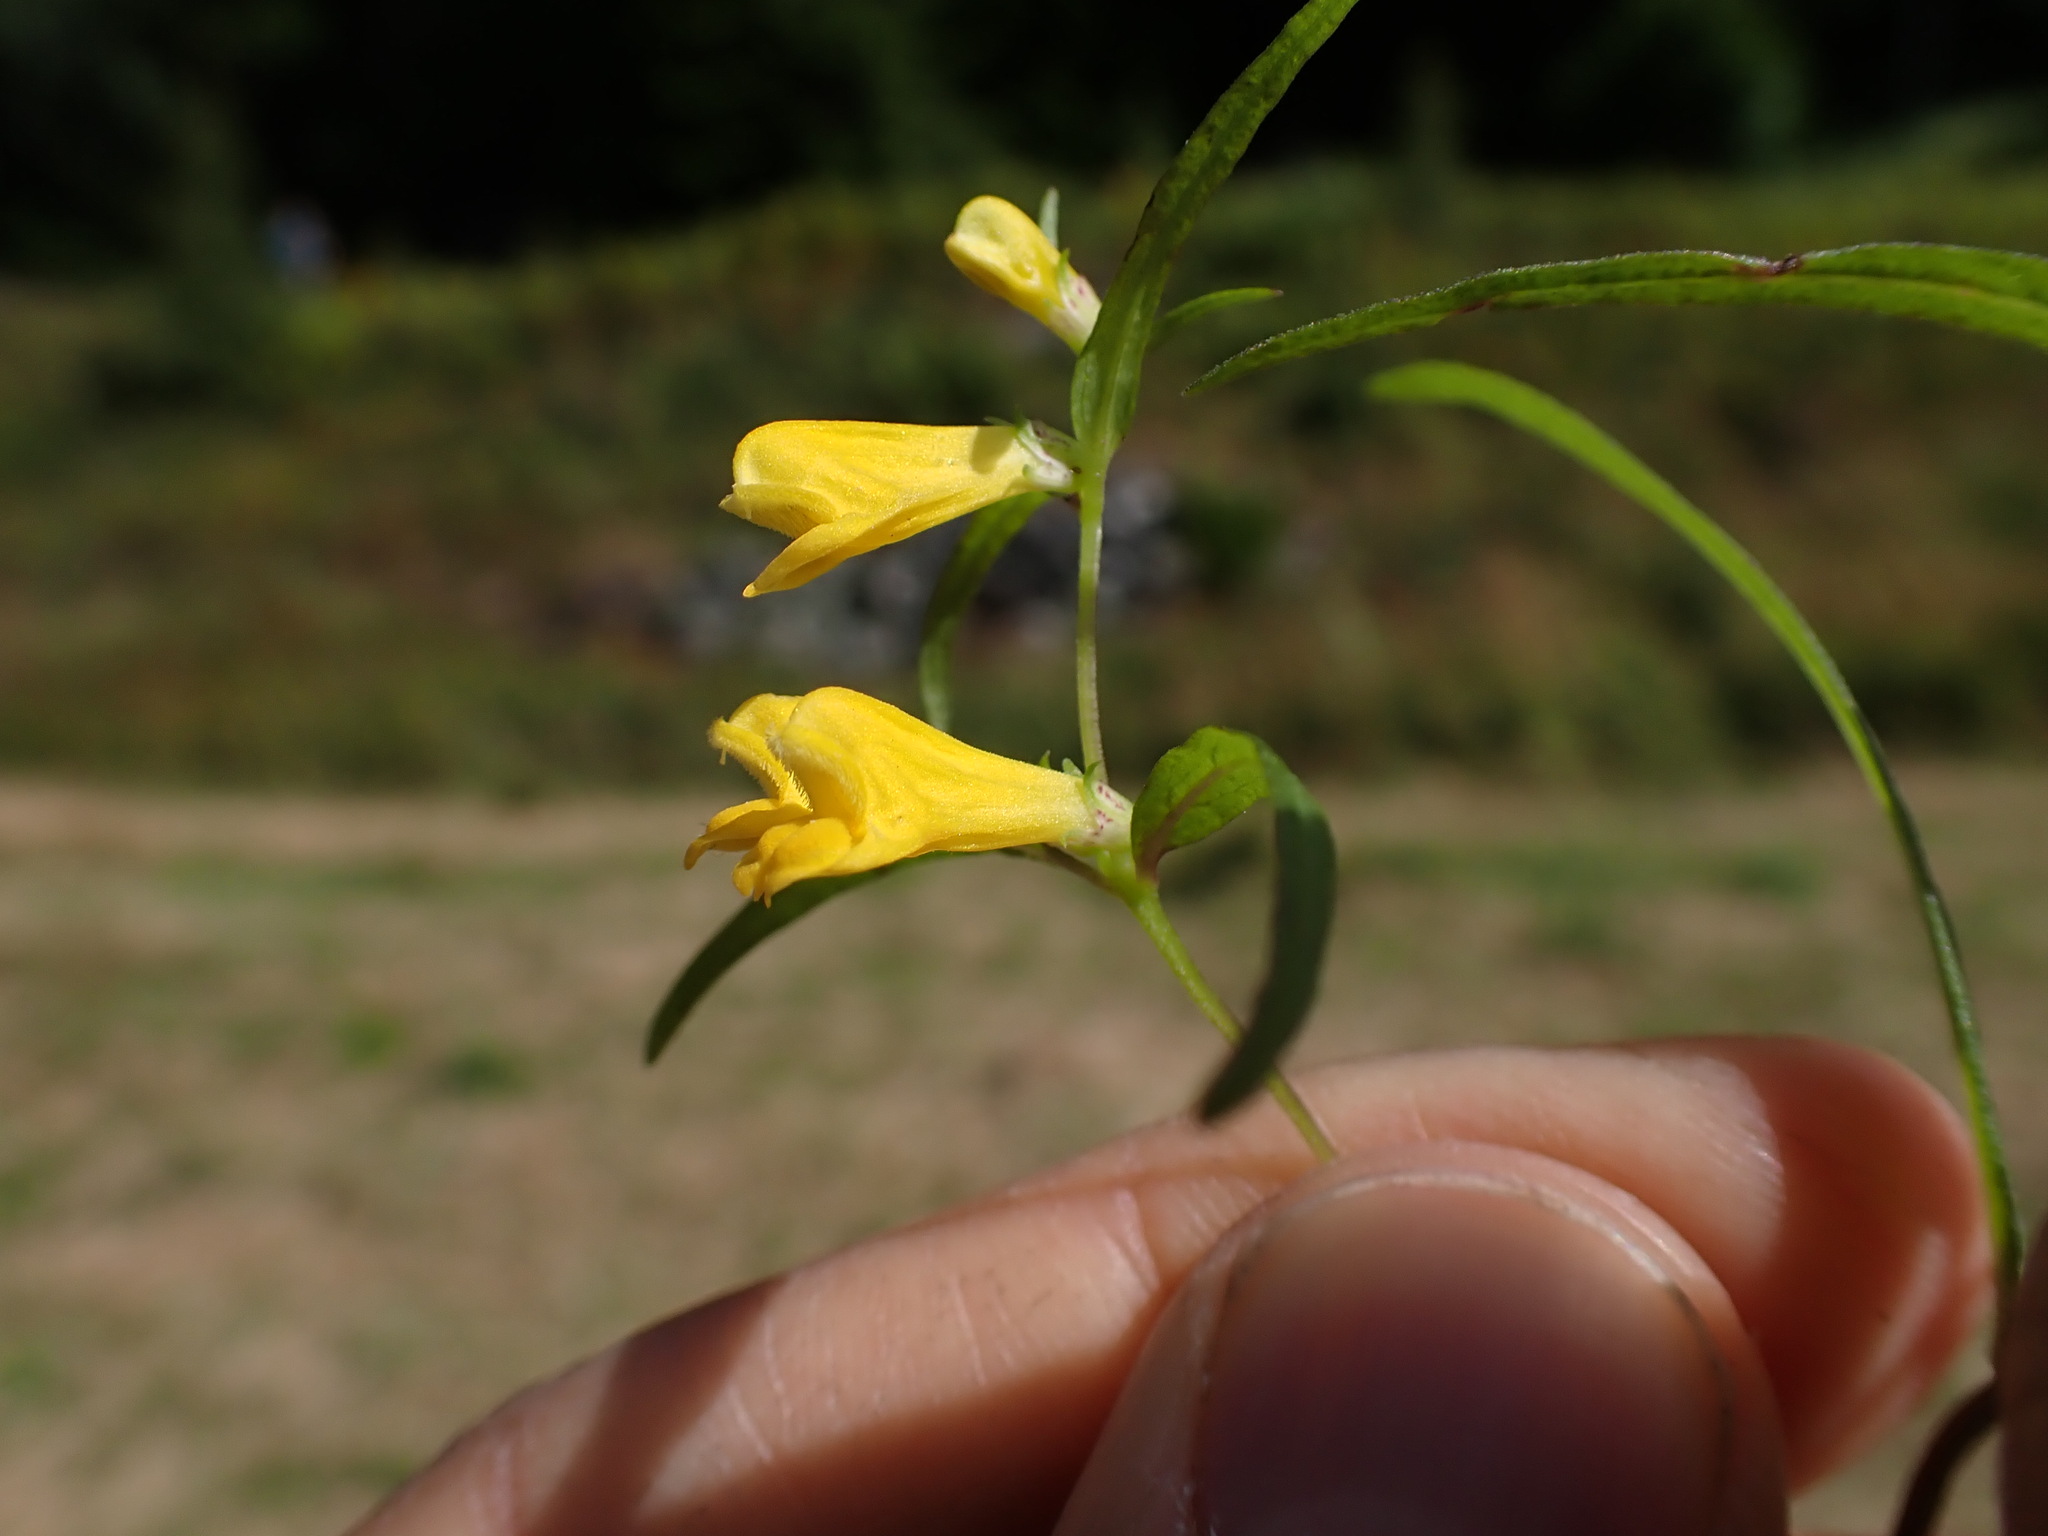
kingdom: Plantae
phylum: Tracheophyta
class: Magnoliopsida
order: Lamiales
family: Orobanchaceae
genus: Melampyrum
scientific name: Melampyrum pratense
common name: Common cow-wheat
